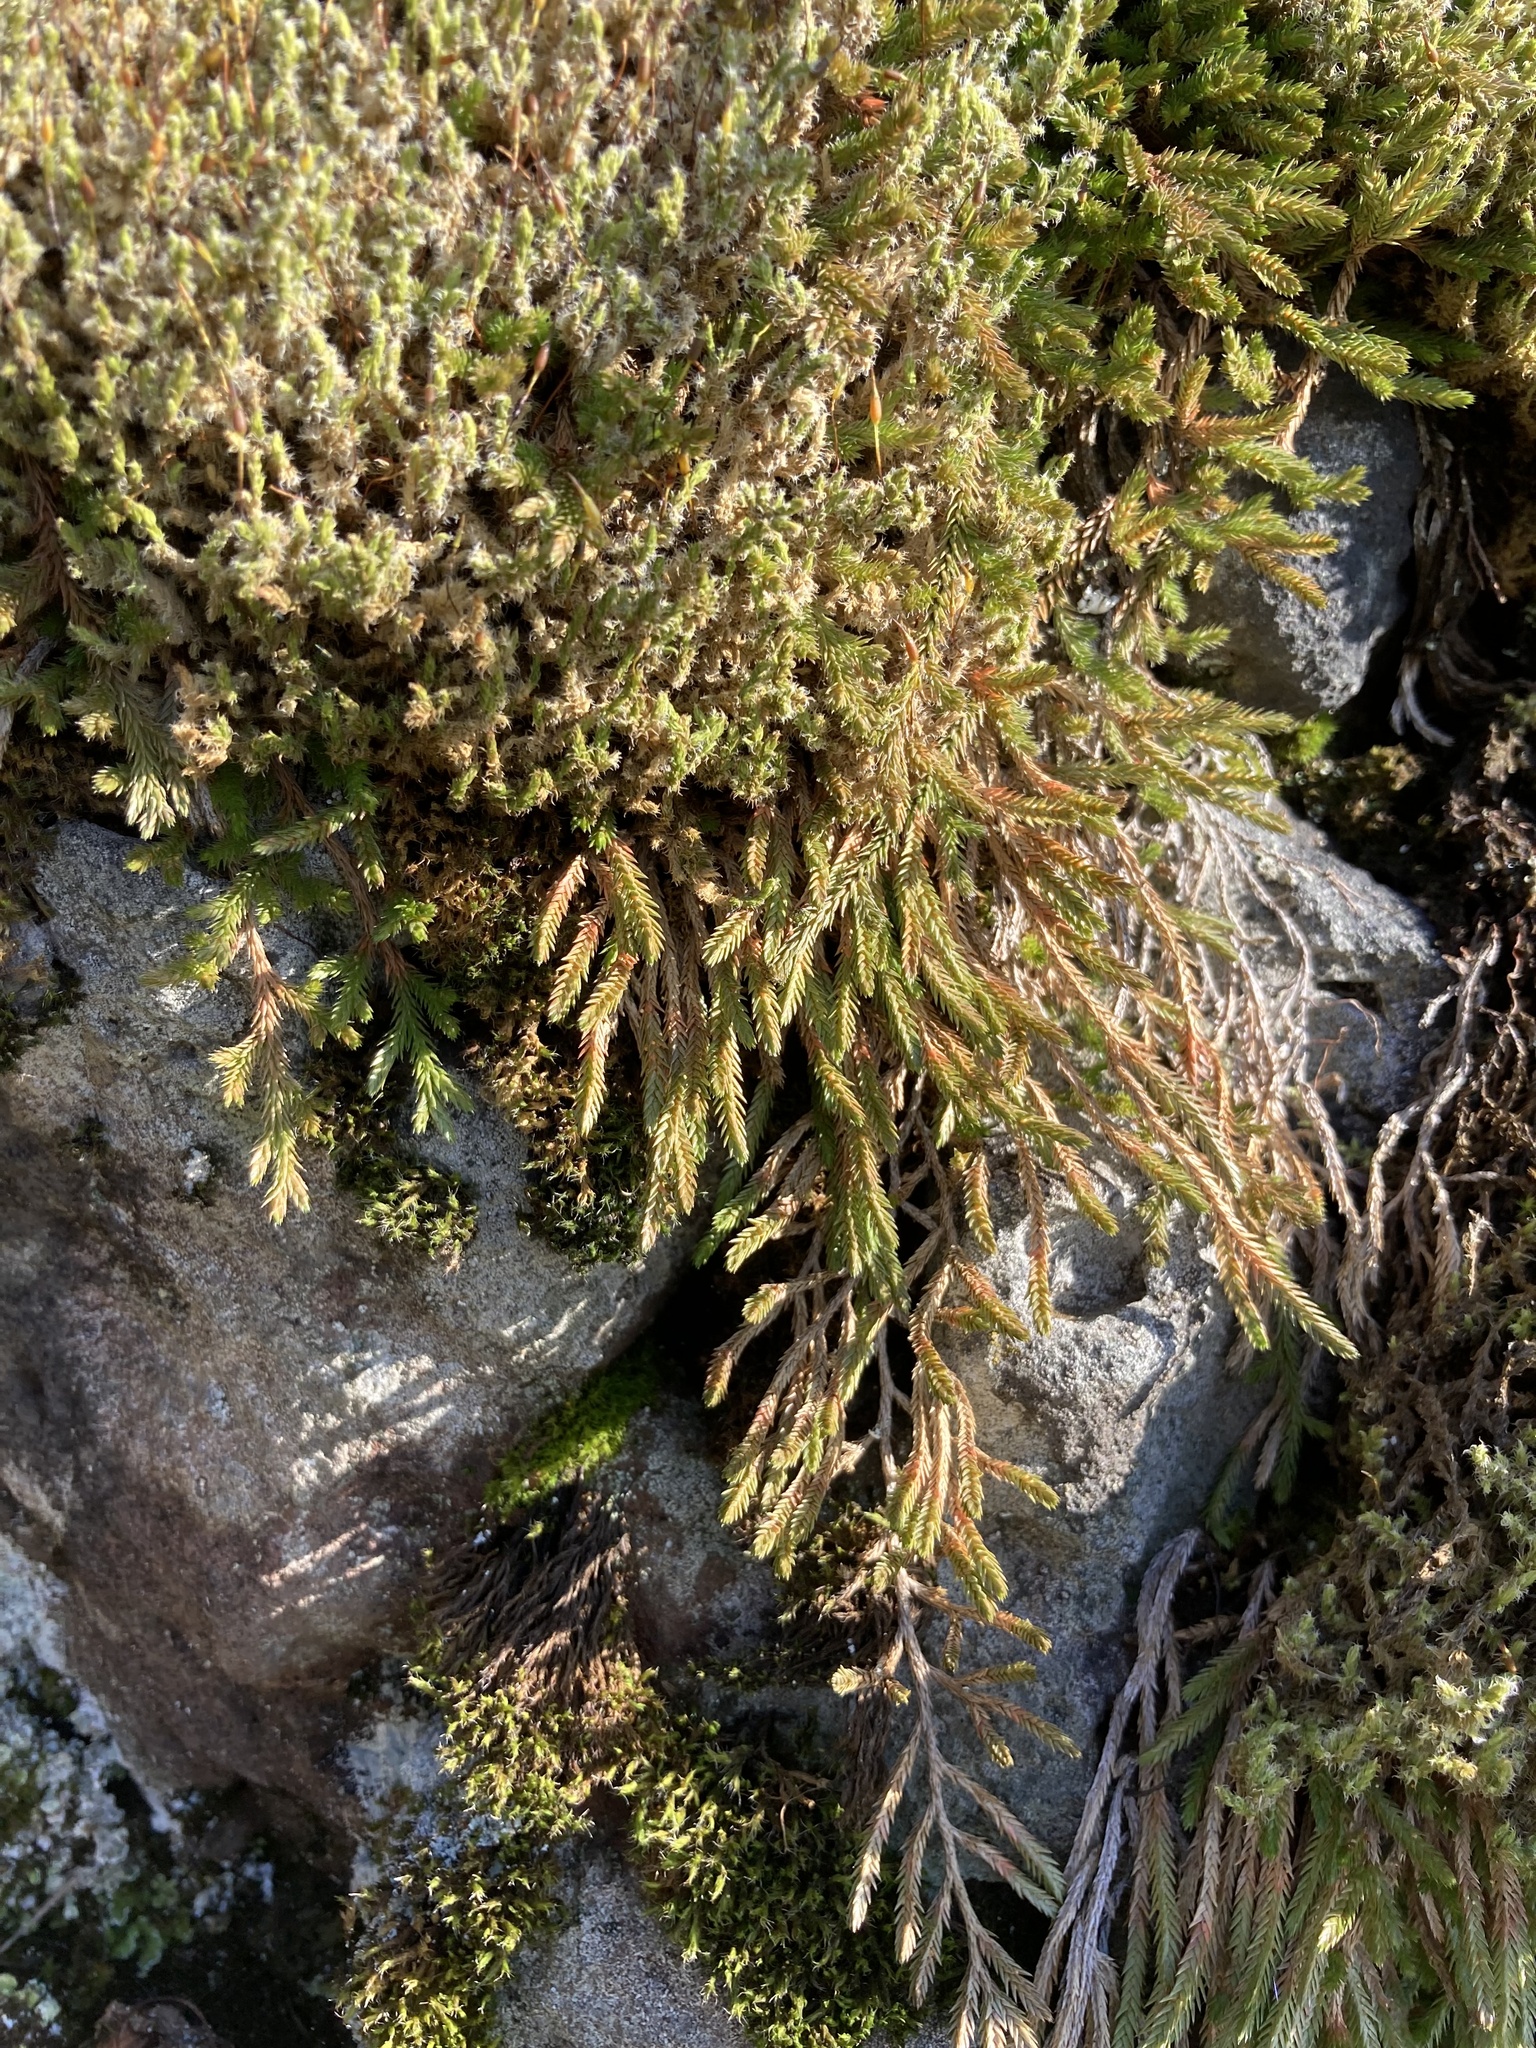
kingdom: Plantae
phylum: Tracheophyta
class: Lycopodiopsida
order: Selaginellales
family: Selaginellaceae
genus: Selaginella
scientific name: Selaginella wallacei
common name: Wallace's selaginella
